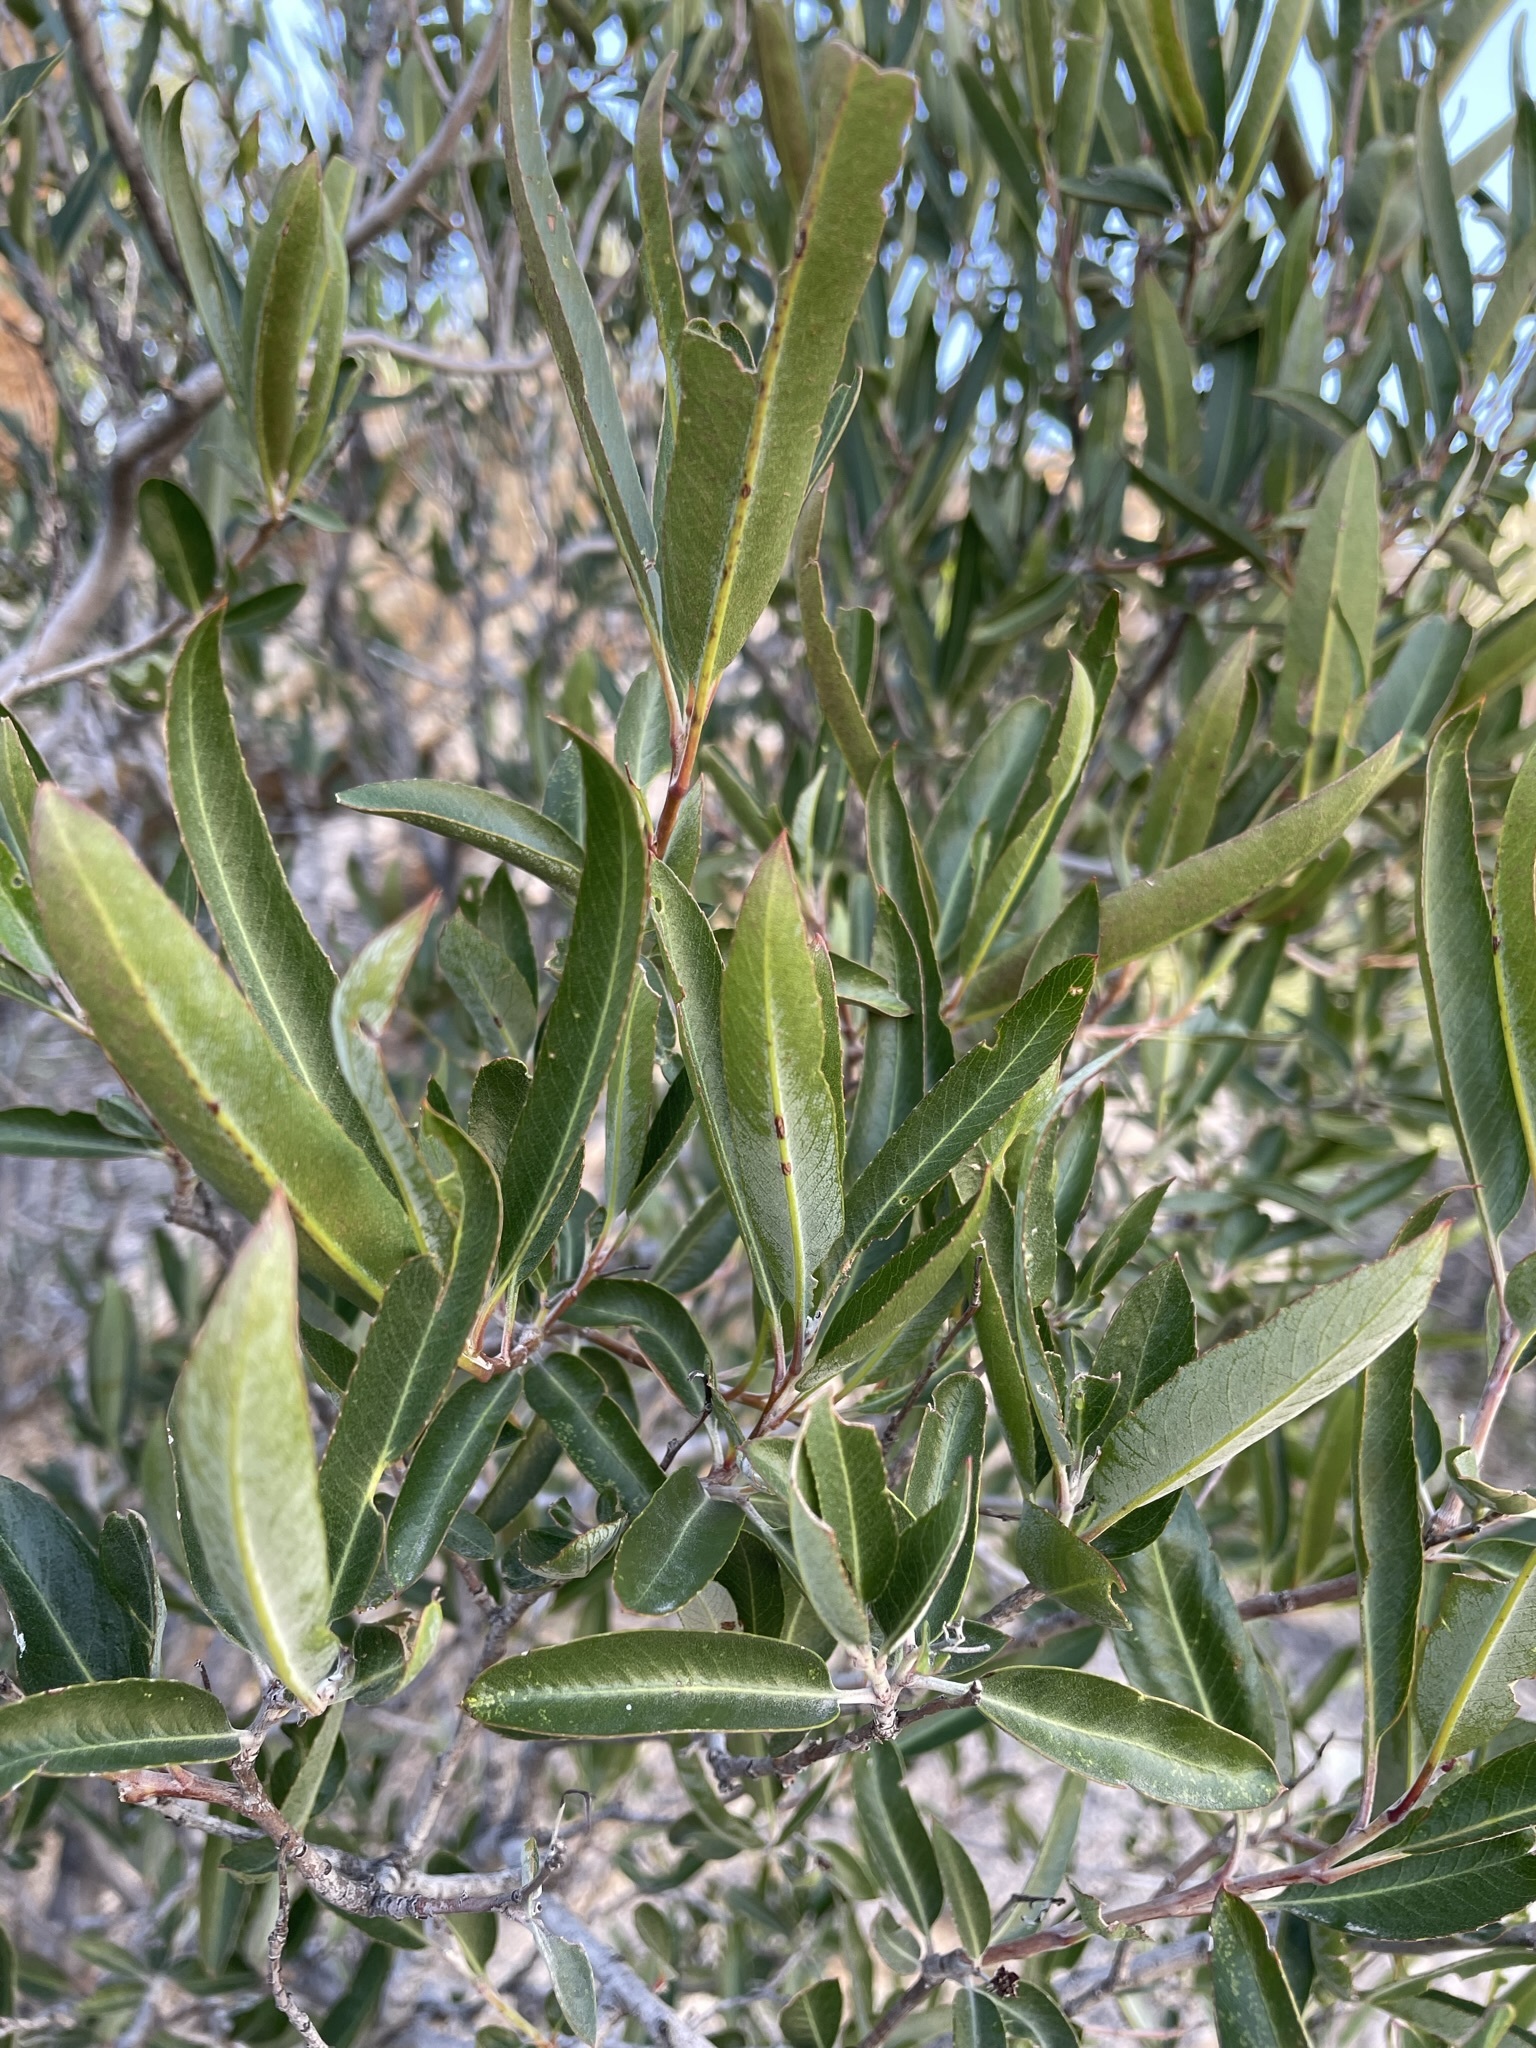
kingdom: Plantae
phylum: Tracheophyta
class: Magnoliopsida
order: Rosales
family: Rosaceae
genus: Vauquelinia
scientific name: Vauquelinia californica
